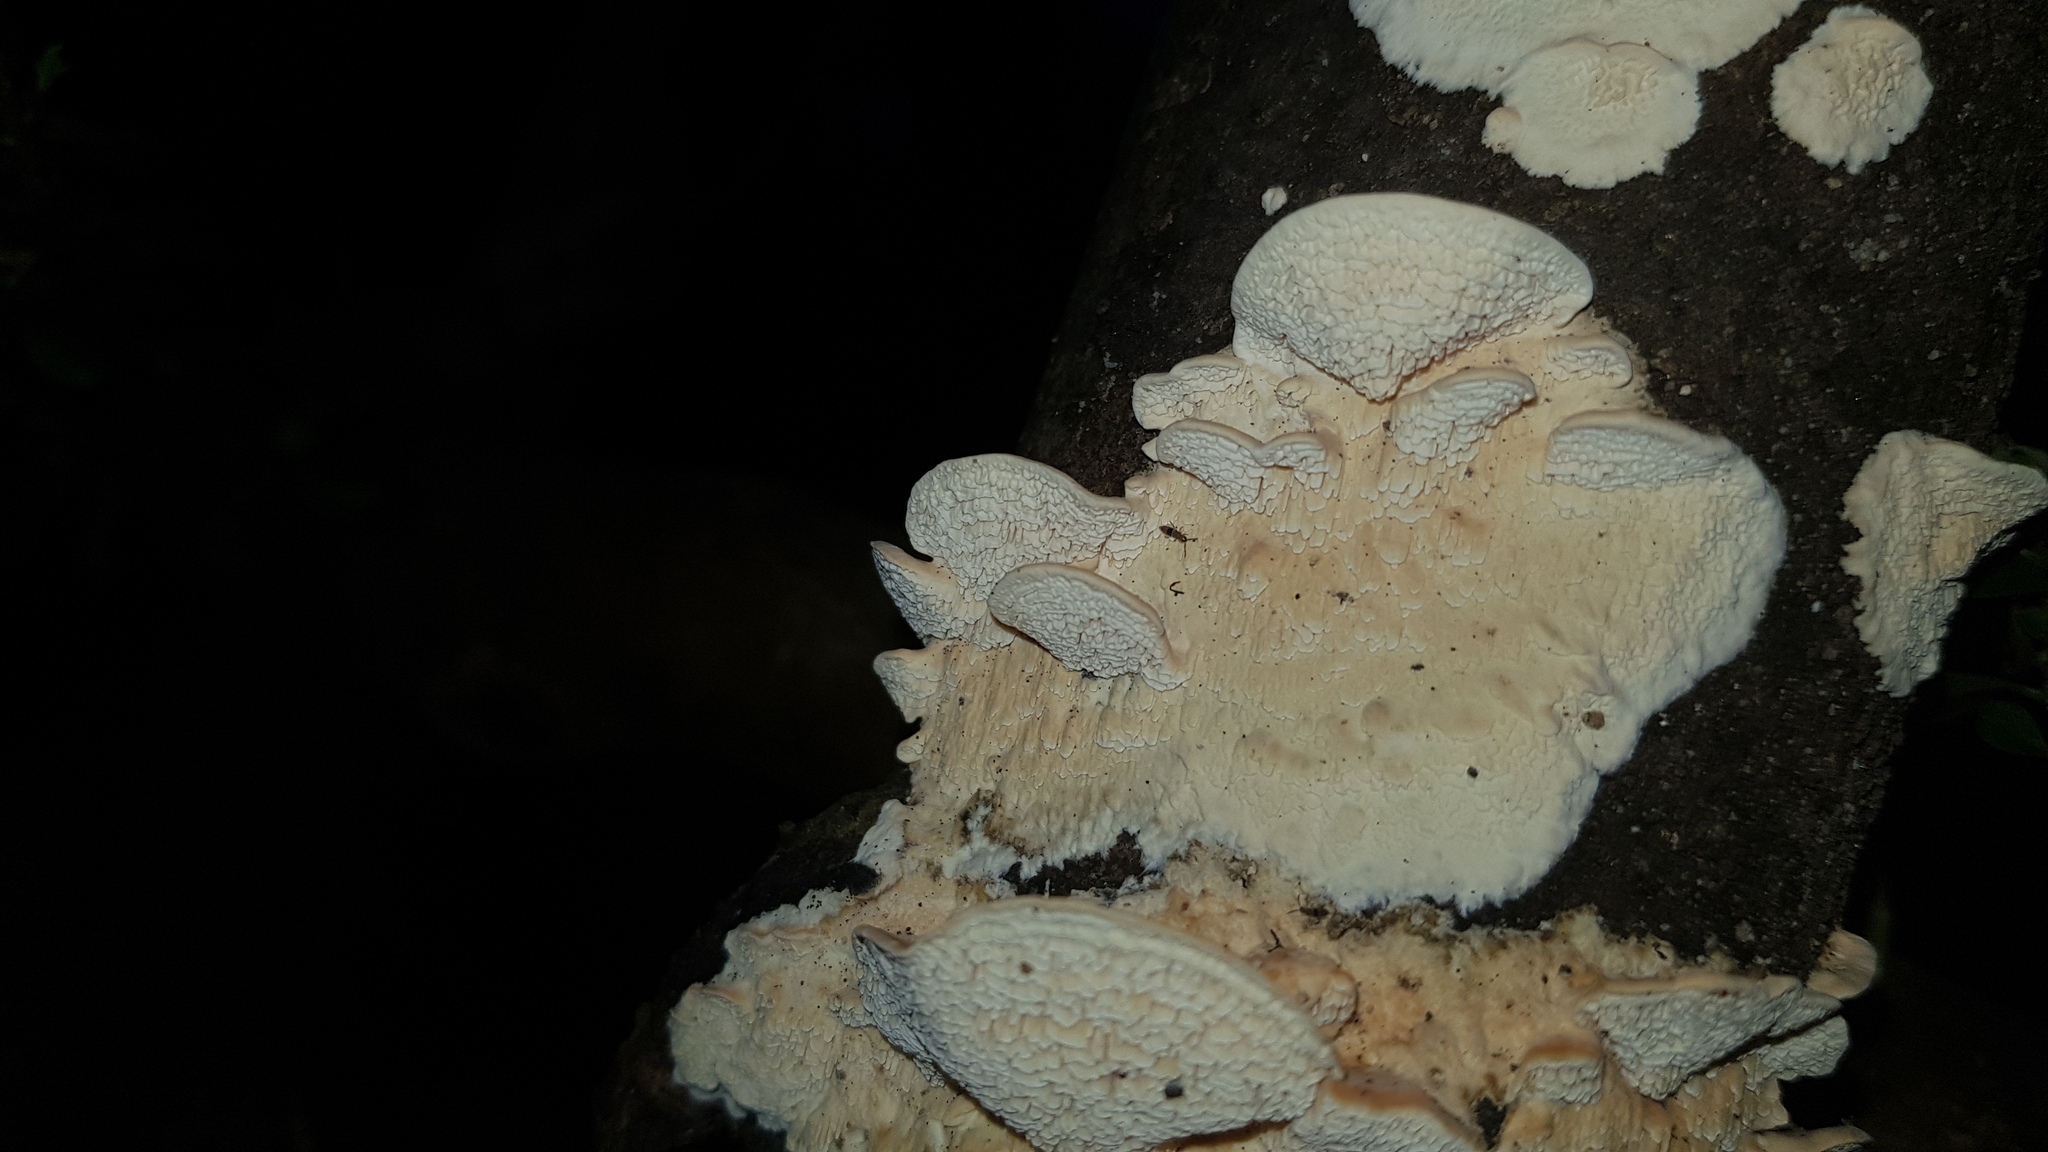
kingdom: Fungi
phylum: Basidiomycota
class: Agaricomycetes
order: Polyporales
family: Cerrenaceae
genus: Cerrena
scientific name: Cerrena zonata
